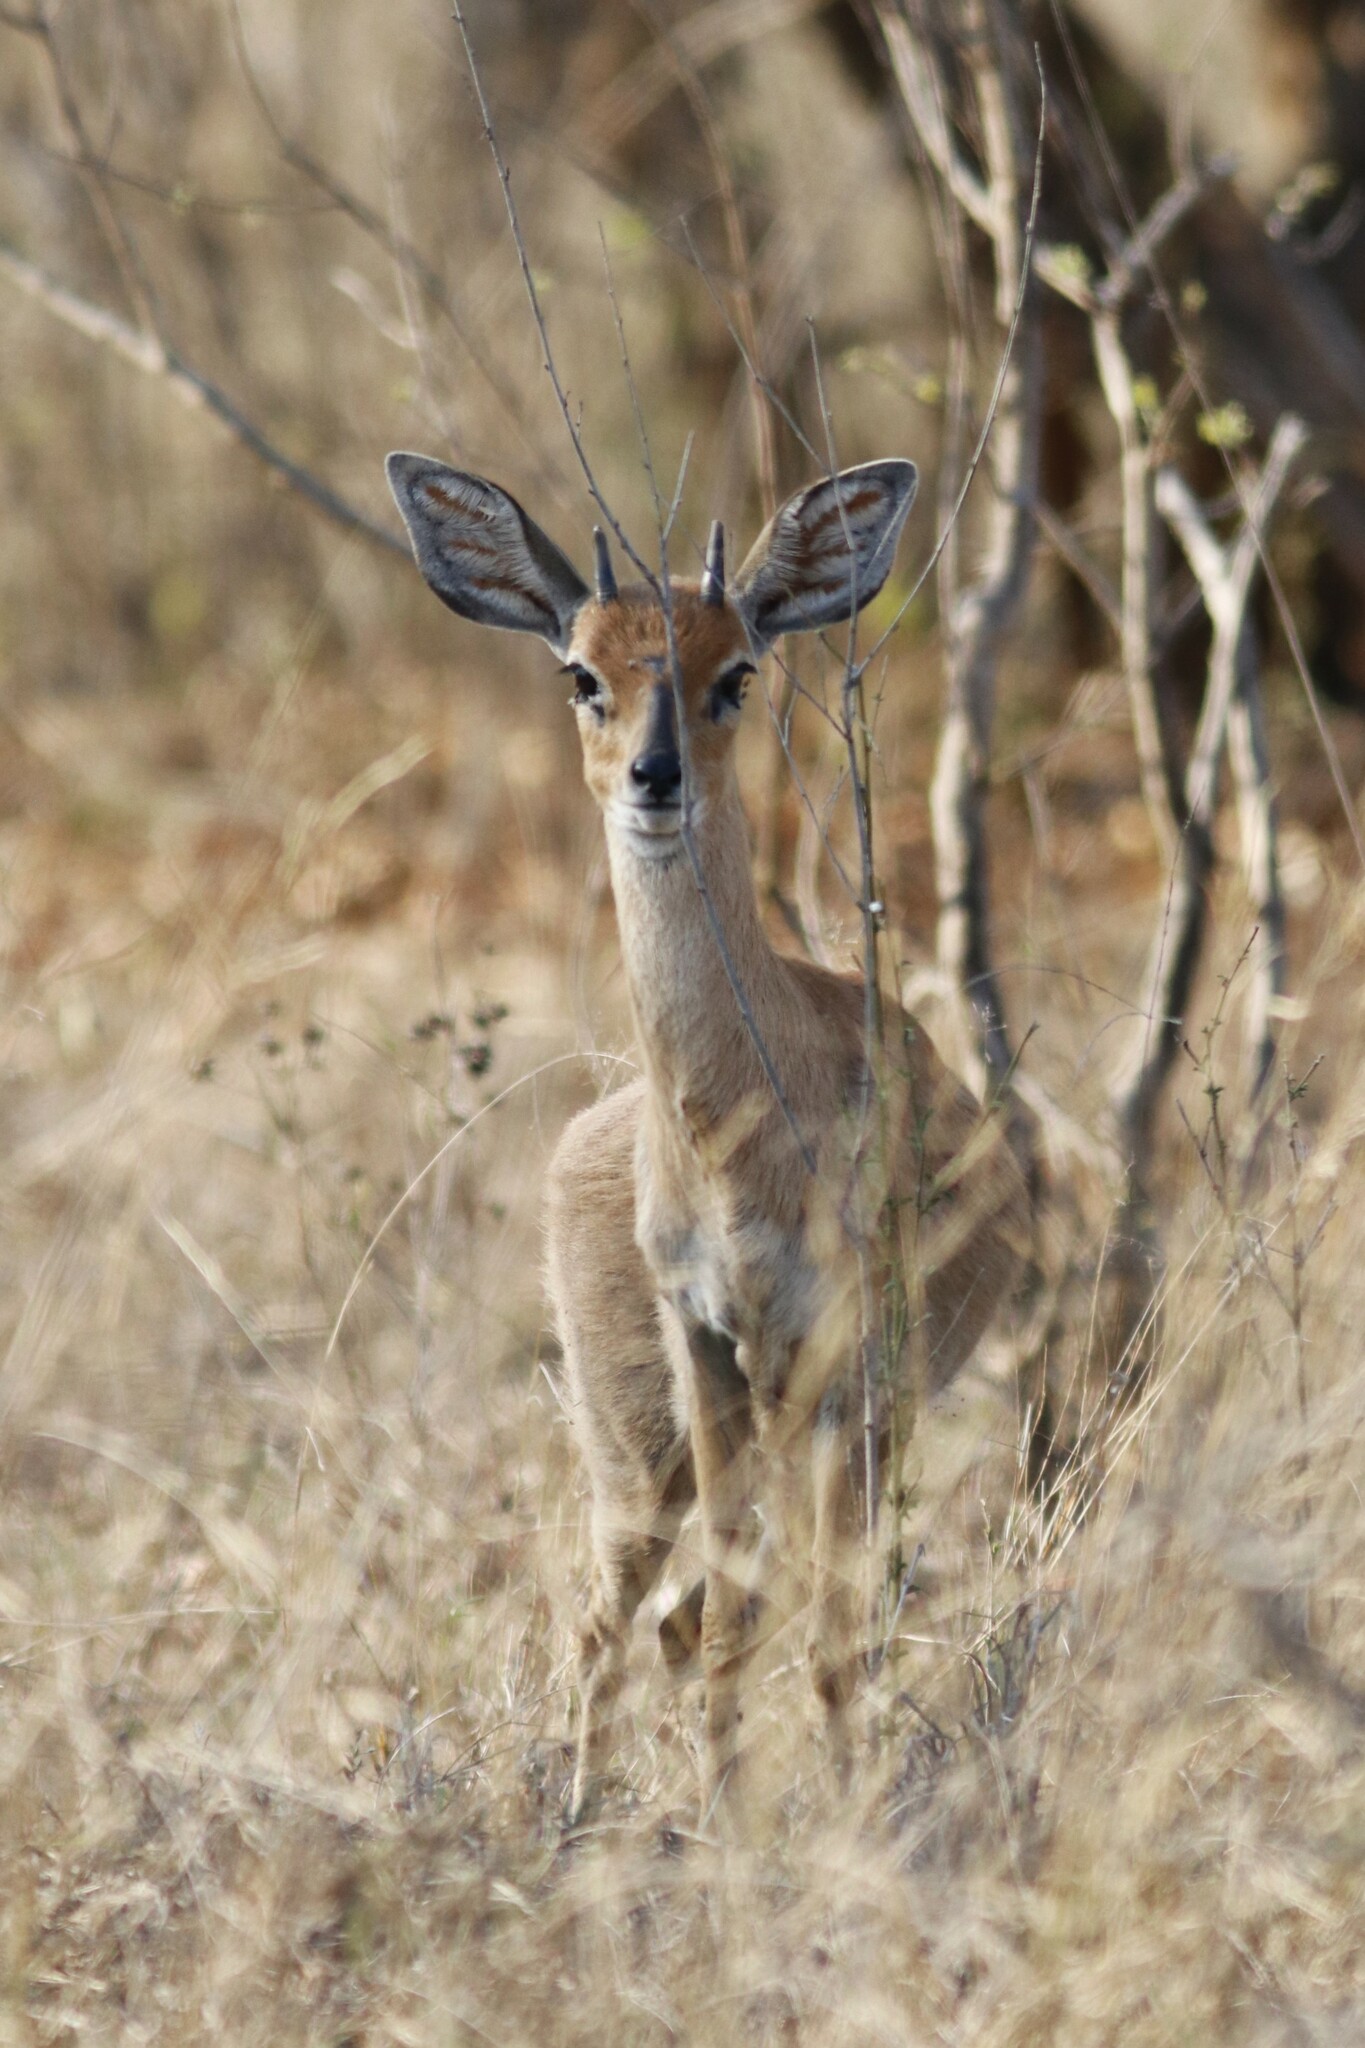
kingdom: Animalia
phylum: Chordata
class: Mammalia
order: Artiodactyla
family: Bovidae
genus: Raphicerus
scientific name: Raphicerus campestris
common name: Steenbok
